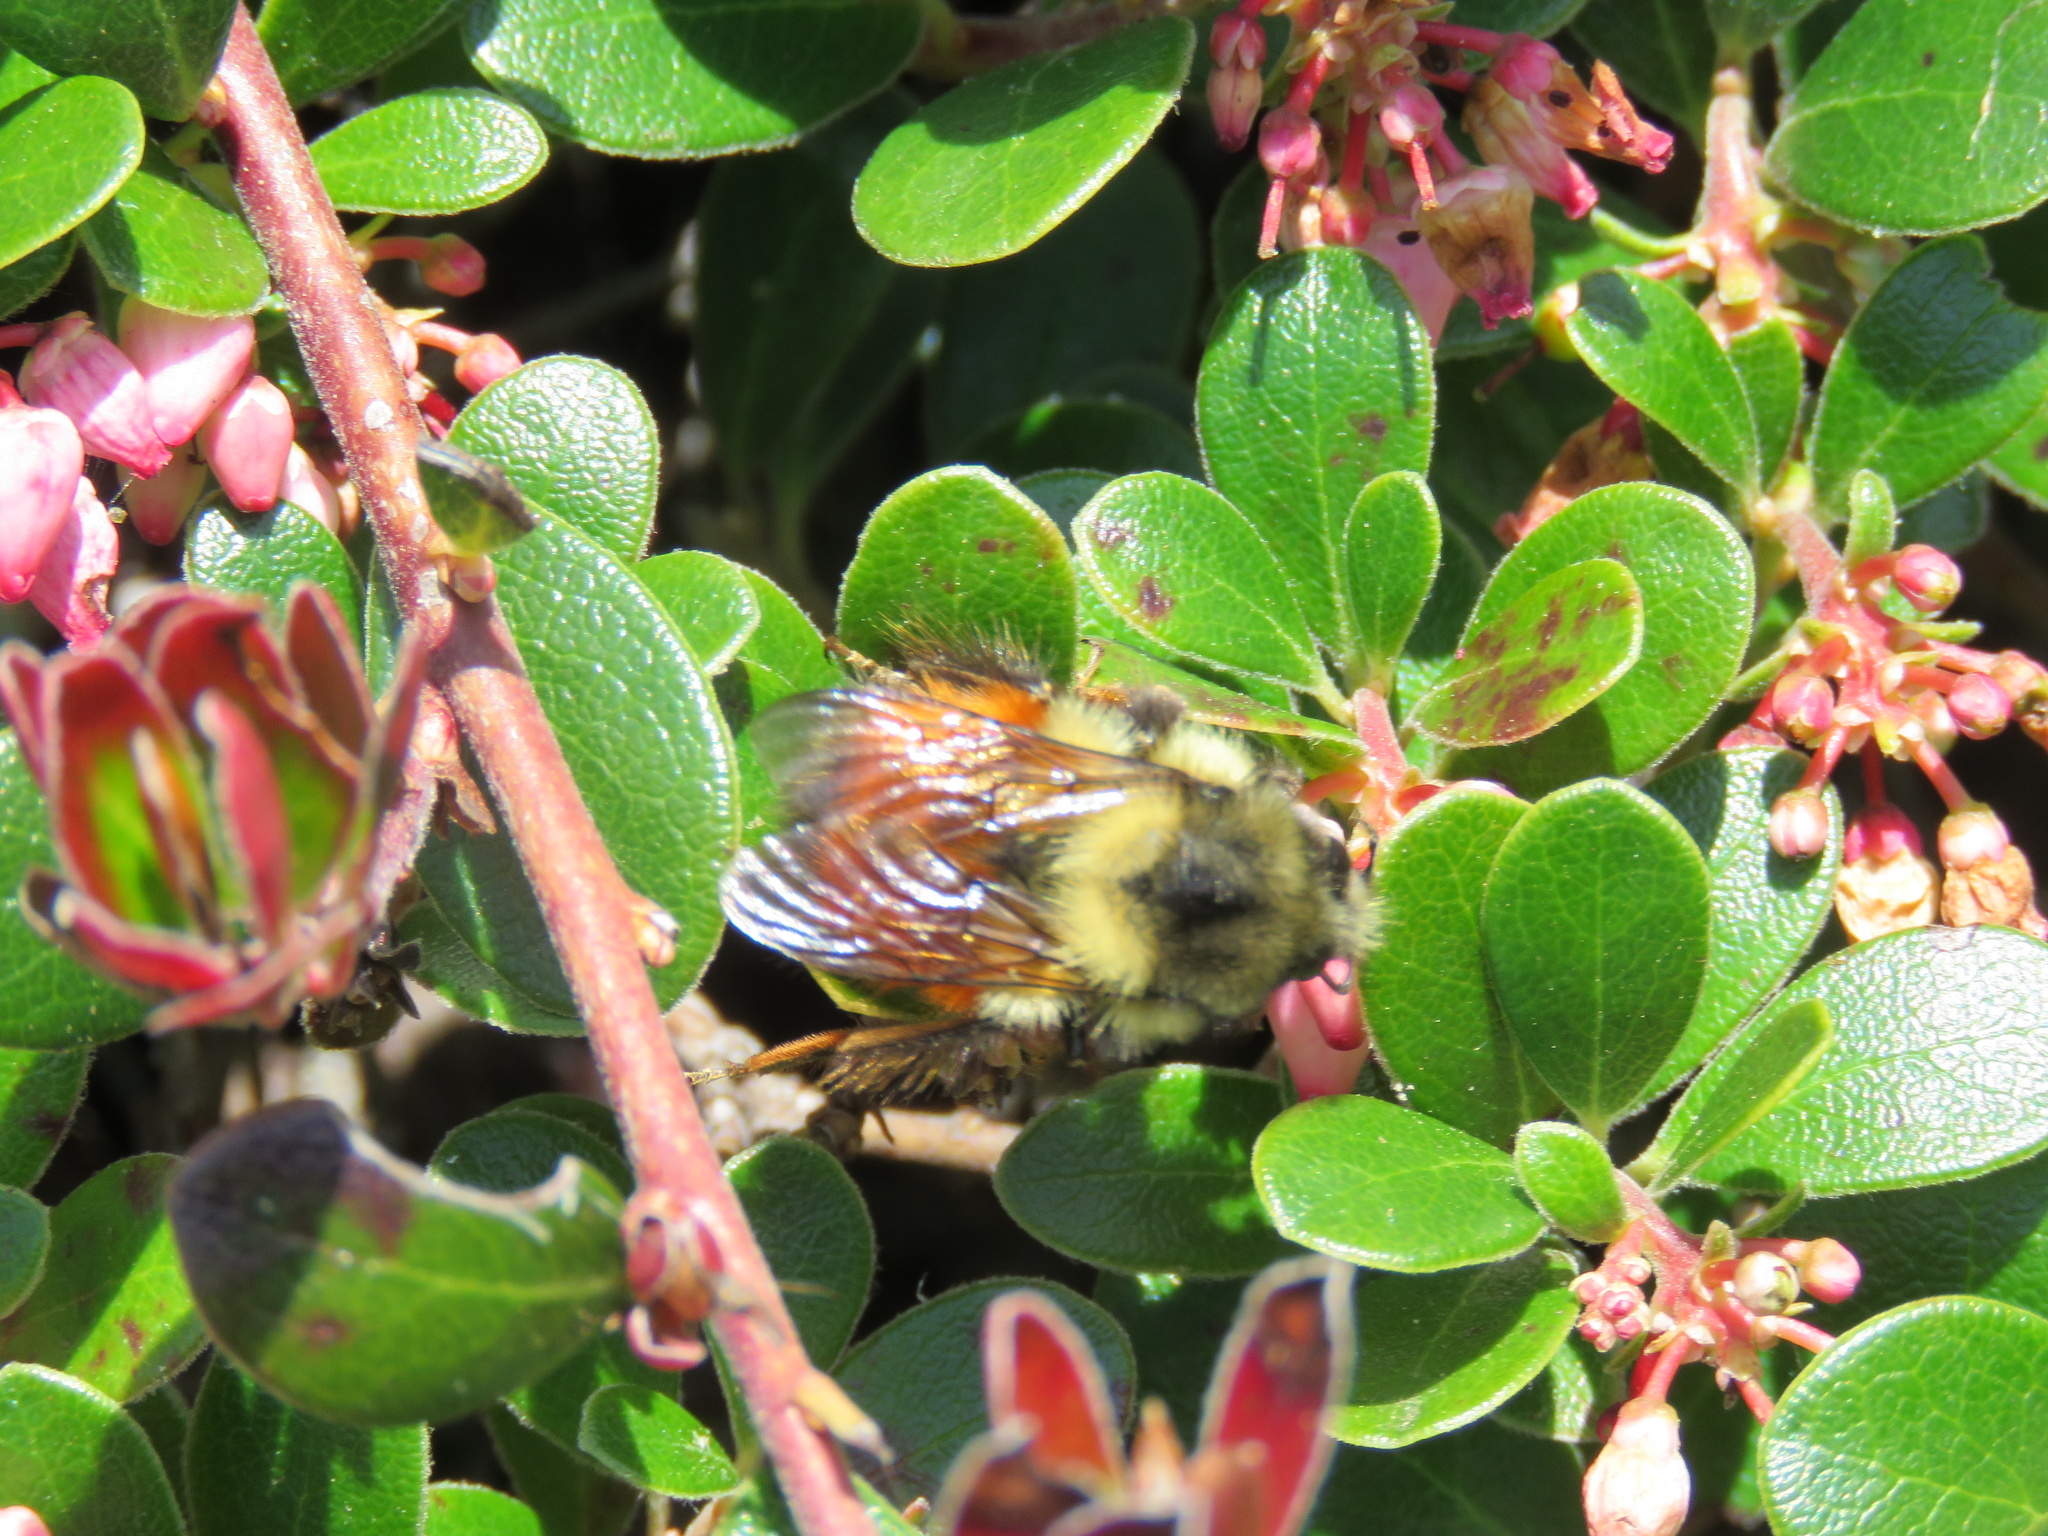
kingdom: Animalia
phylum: Arthropoda
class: Insecta
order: Hymenoptera
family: Apidae
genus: Bombus
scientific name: Bombus melanopygus
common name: Black tail bumble bee
